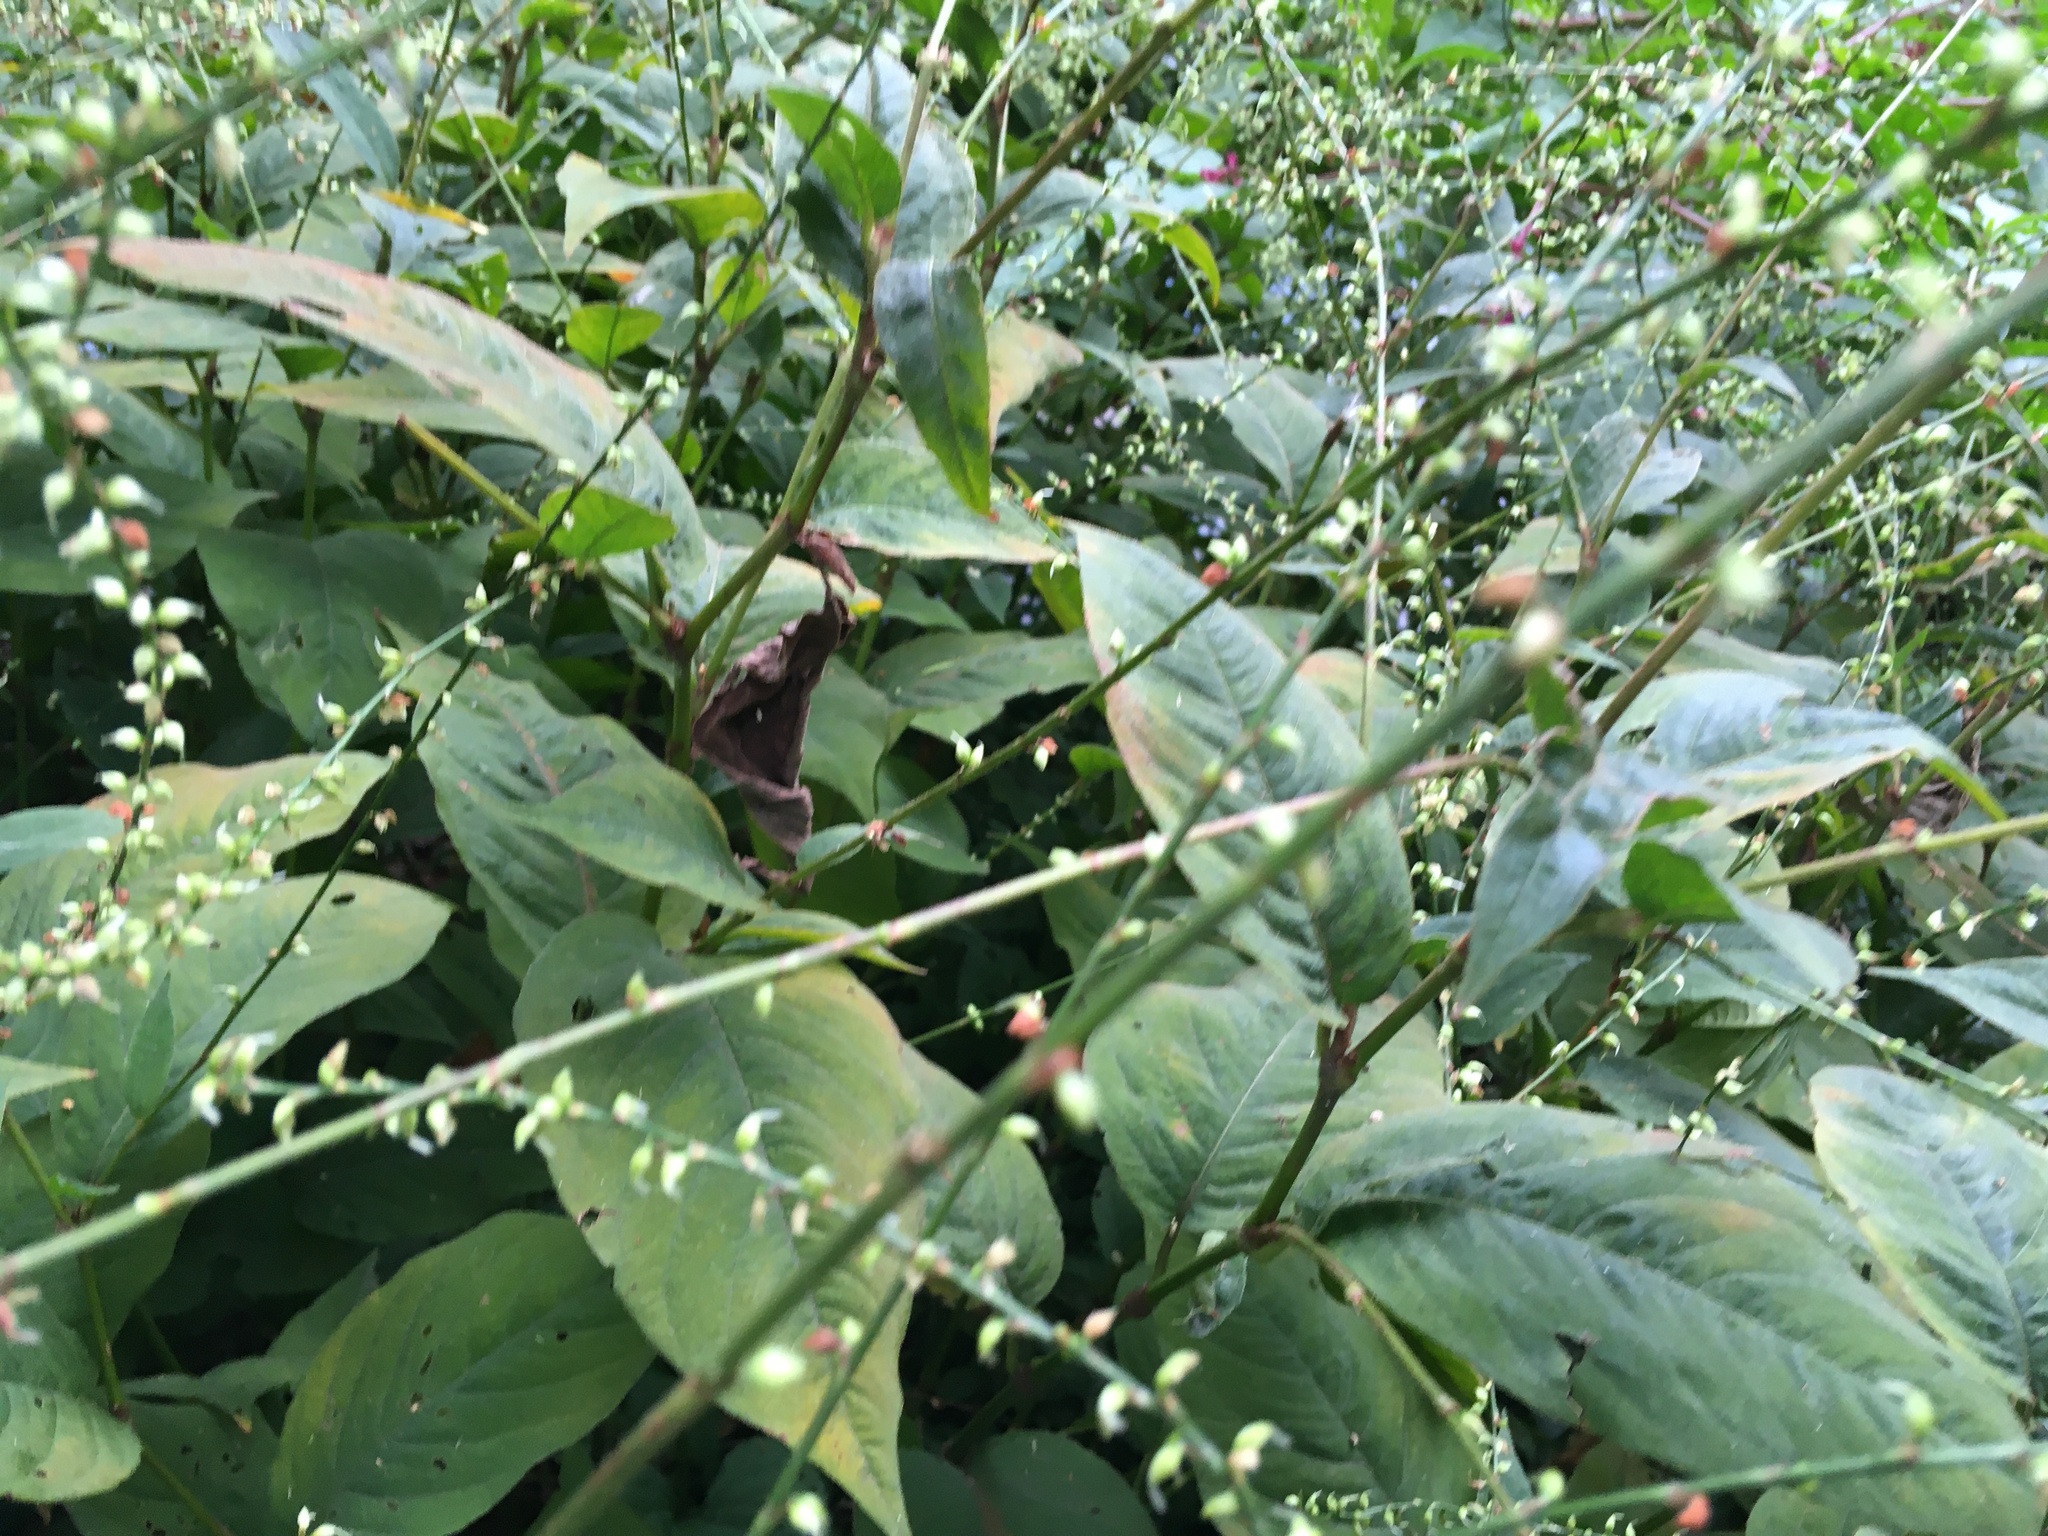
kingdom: Plantae
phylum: Tracheophyta
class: Magnoliopsida
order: Caryophyllales
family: Polygonaceae
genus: Persicaria
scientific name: Persicaria virginiana
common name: Jumpseed
